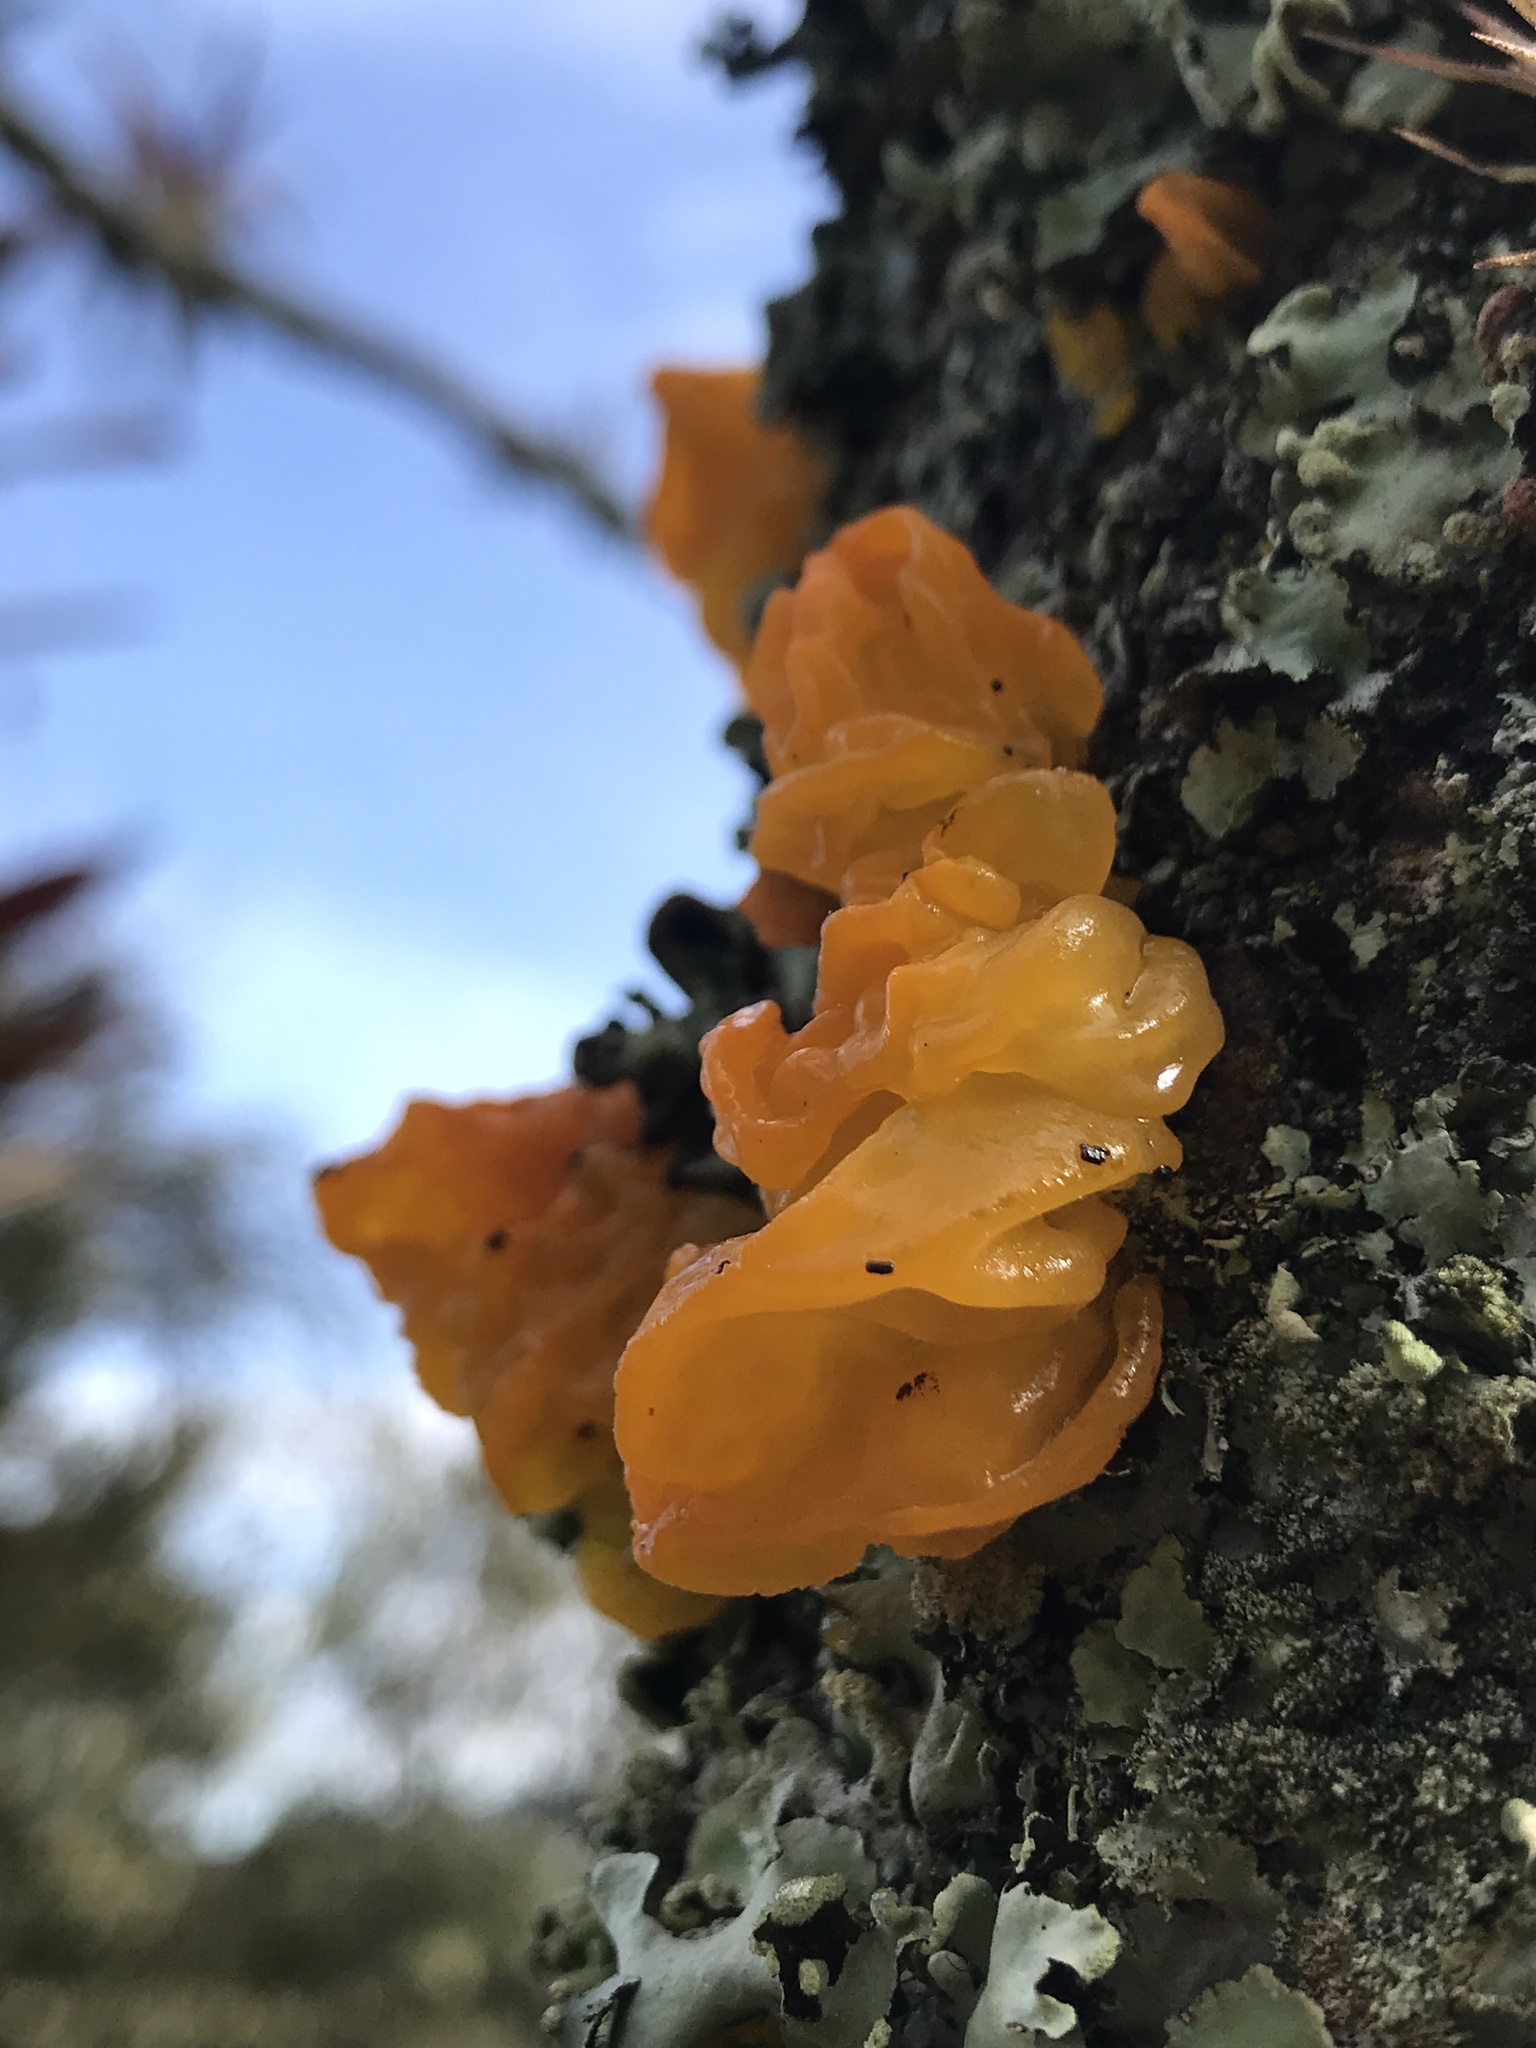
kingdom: Fungi
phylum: Basidiomycota
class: Tremellomycetes
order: Tremellales
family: Tremellaceae
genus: Tremella
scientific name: Tremella mesenterica
